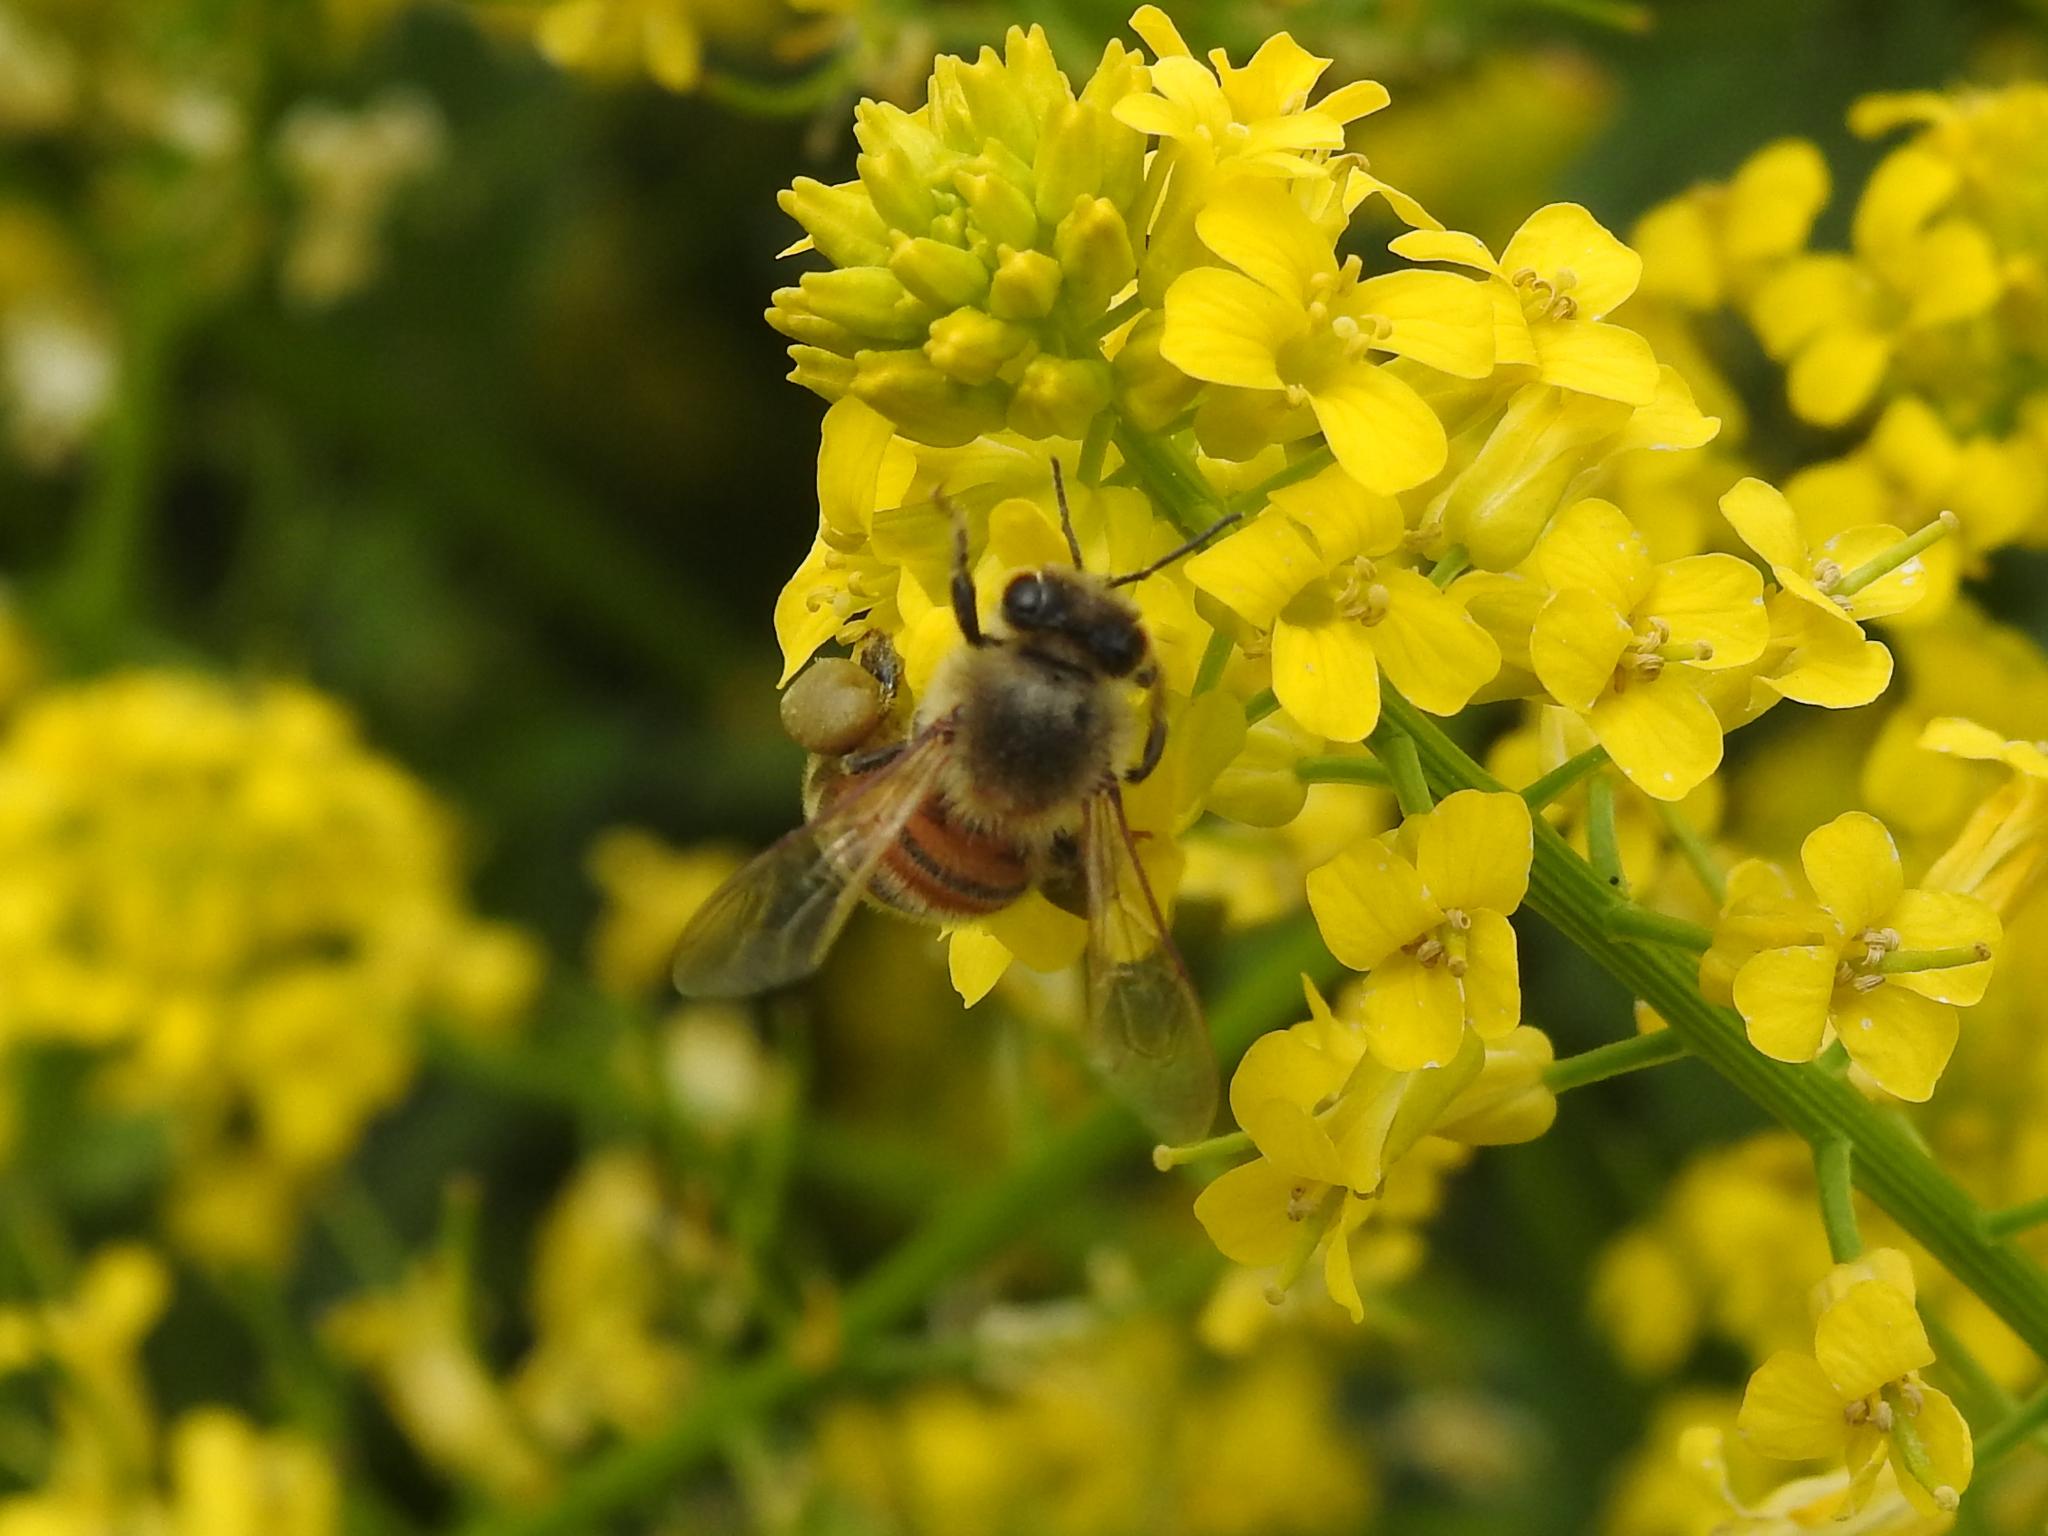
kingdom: Animalia
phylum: Arthropoda
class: Insecta
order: Hymenoptera
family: Apidae
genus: Apis
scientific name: Apis mellifera
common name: Honey bee
